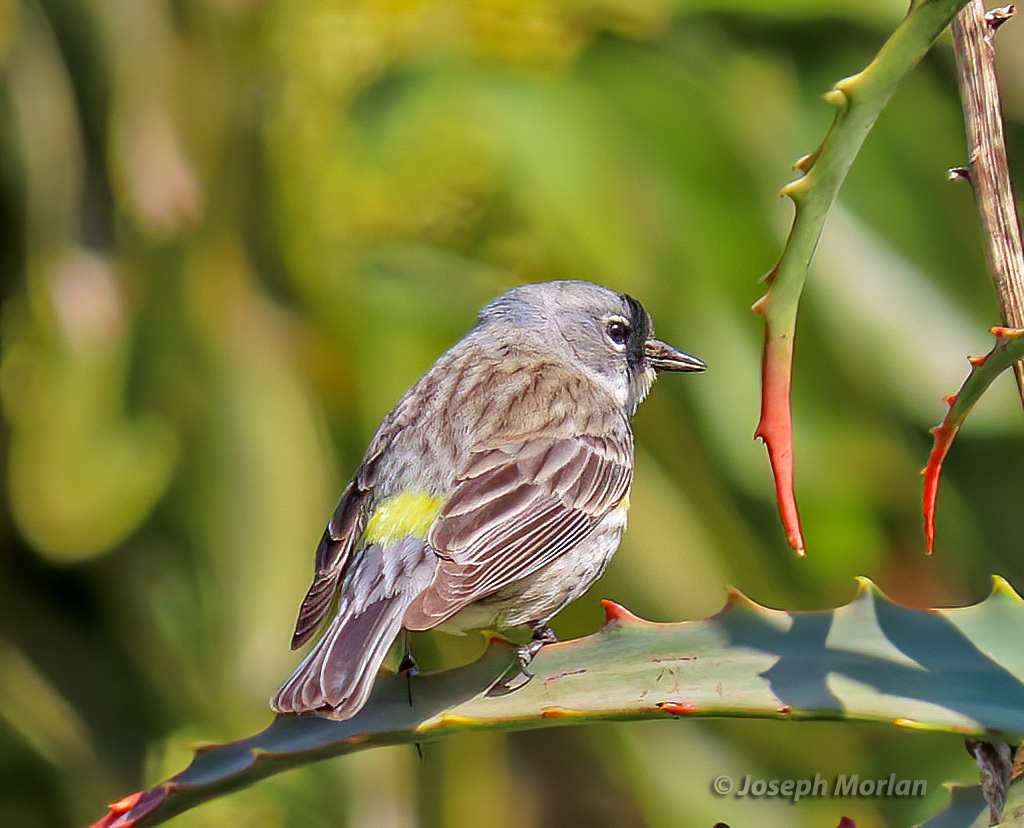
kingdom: Animalia
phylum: Chordata
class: Aves
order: Passeriformes
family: Parulidae
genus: Setophaga
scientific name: Setophaga coronata
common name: Myrtle warbler
